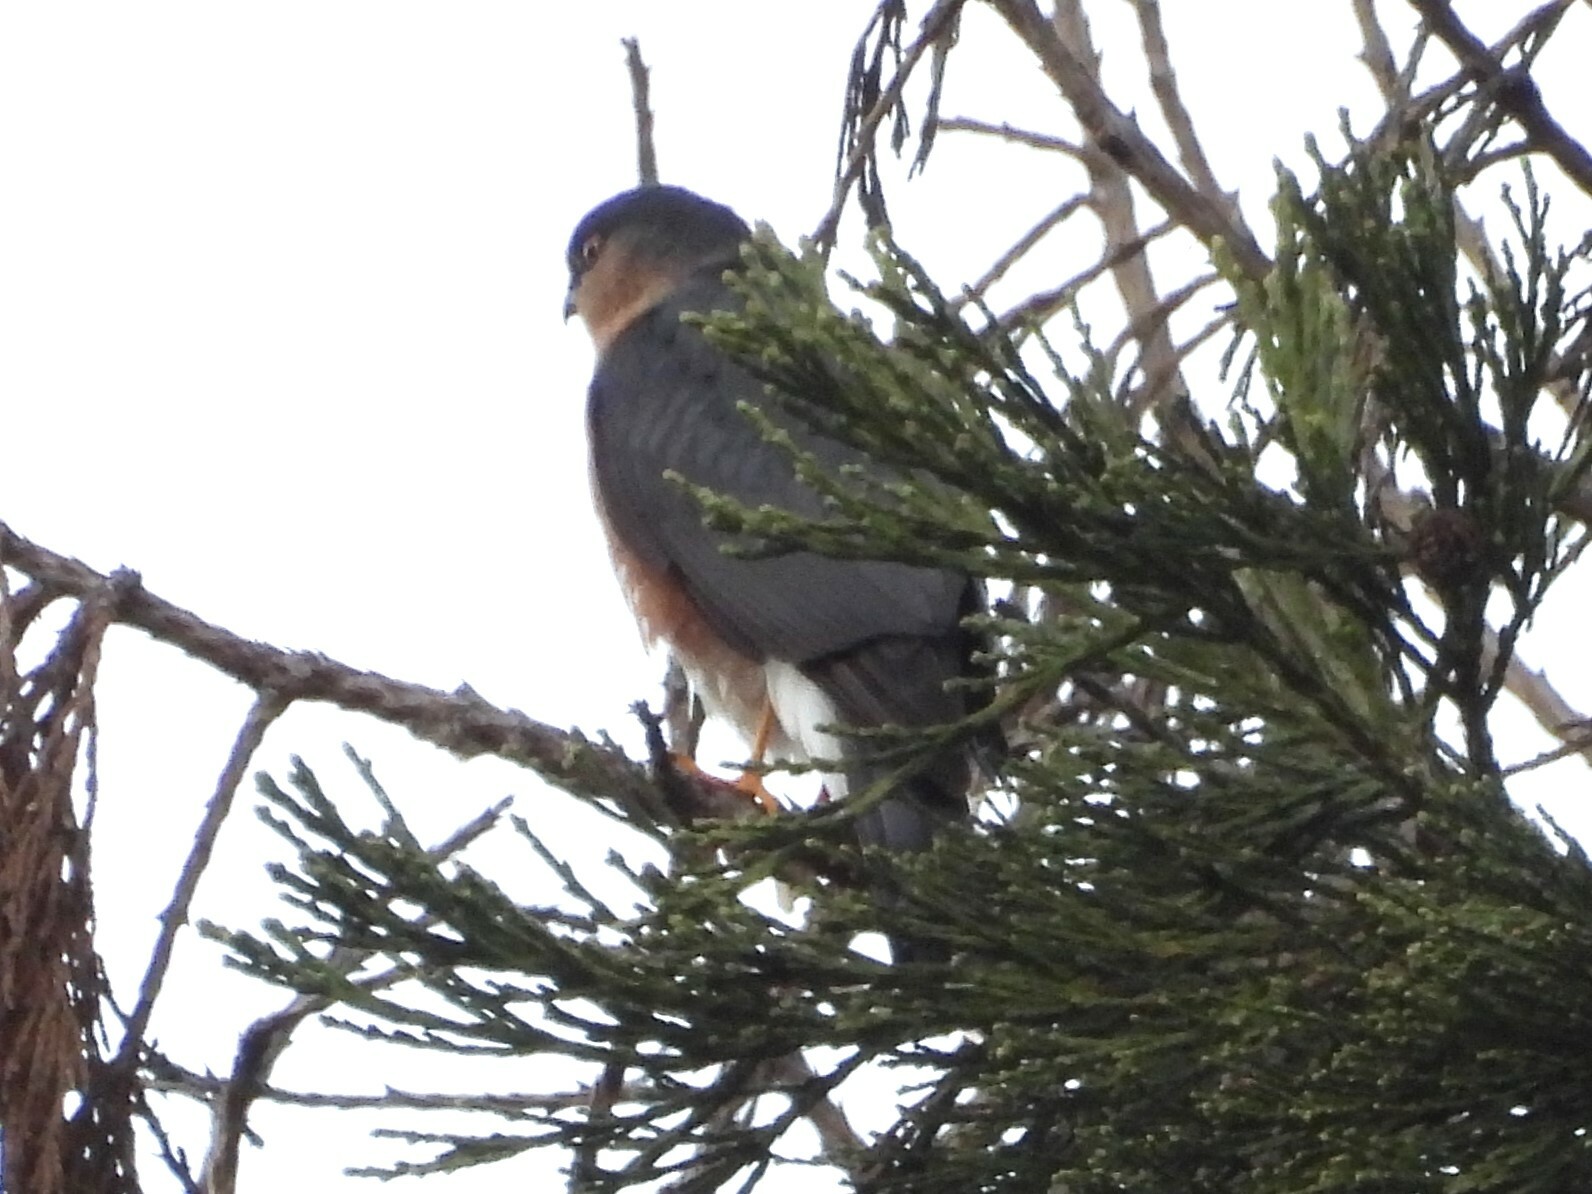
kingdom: Animalia
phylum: Chordata
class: Aves
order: Accipitriformes
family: Accipitridae
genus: Accipiter
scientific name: Accipiter striatus
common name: Sharp-shinned hawk
